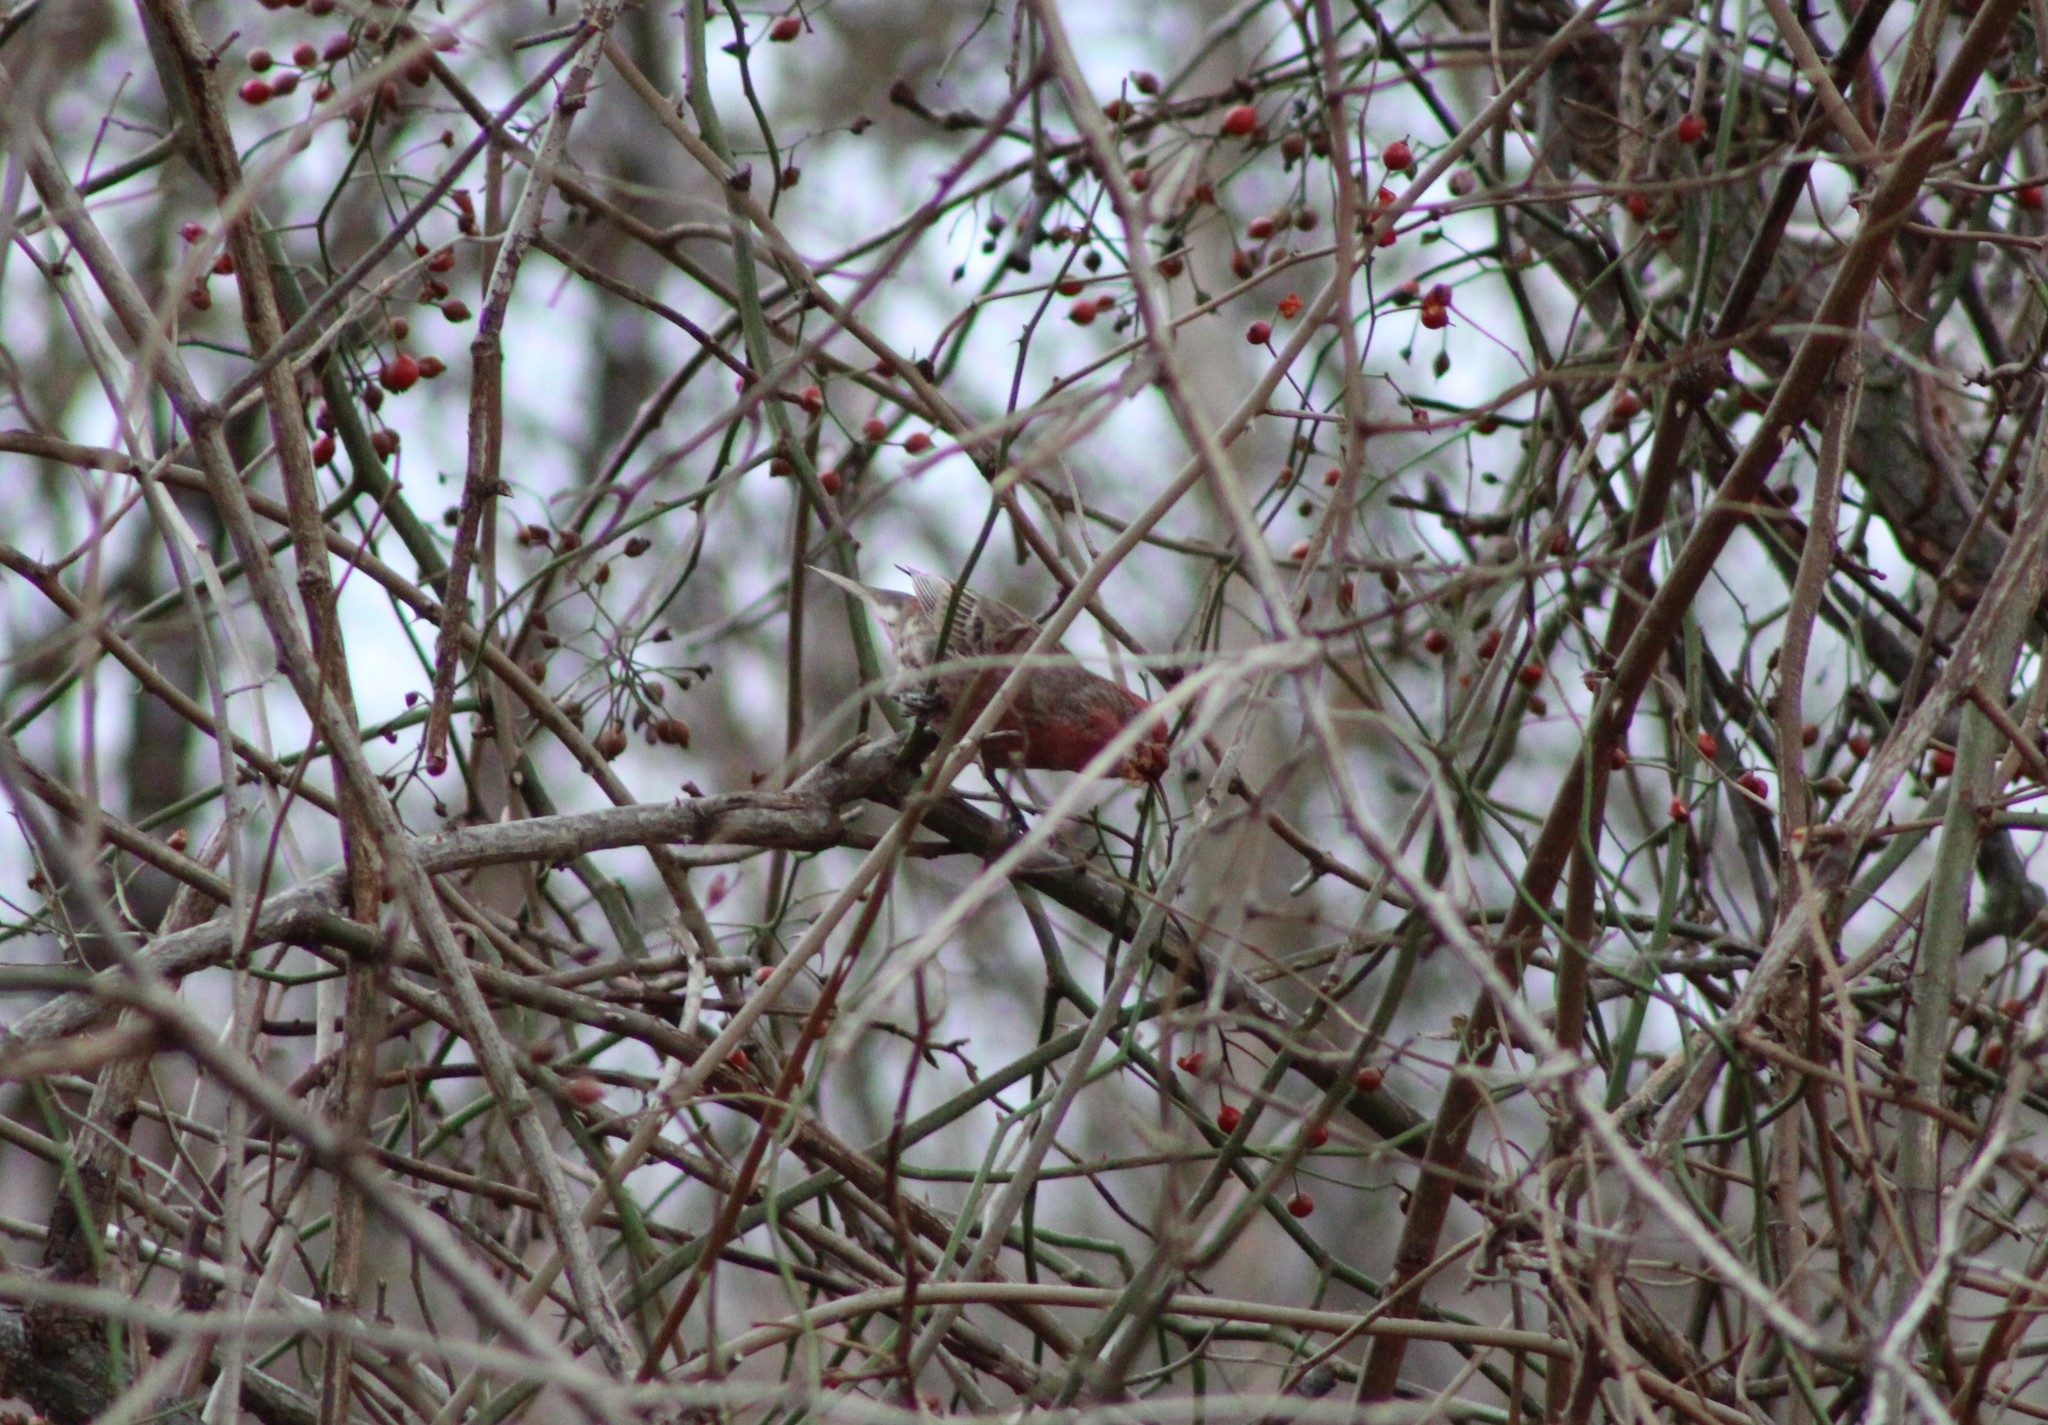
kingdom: Animalia
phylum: Chordata
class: Aves
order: Passeriformes
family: Fringillidae
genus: Haemorhous
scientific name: Haemorhous mexicanus
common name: House finch
